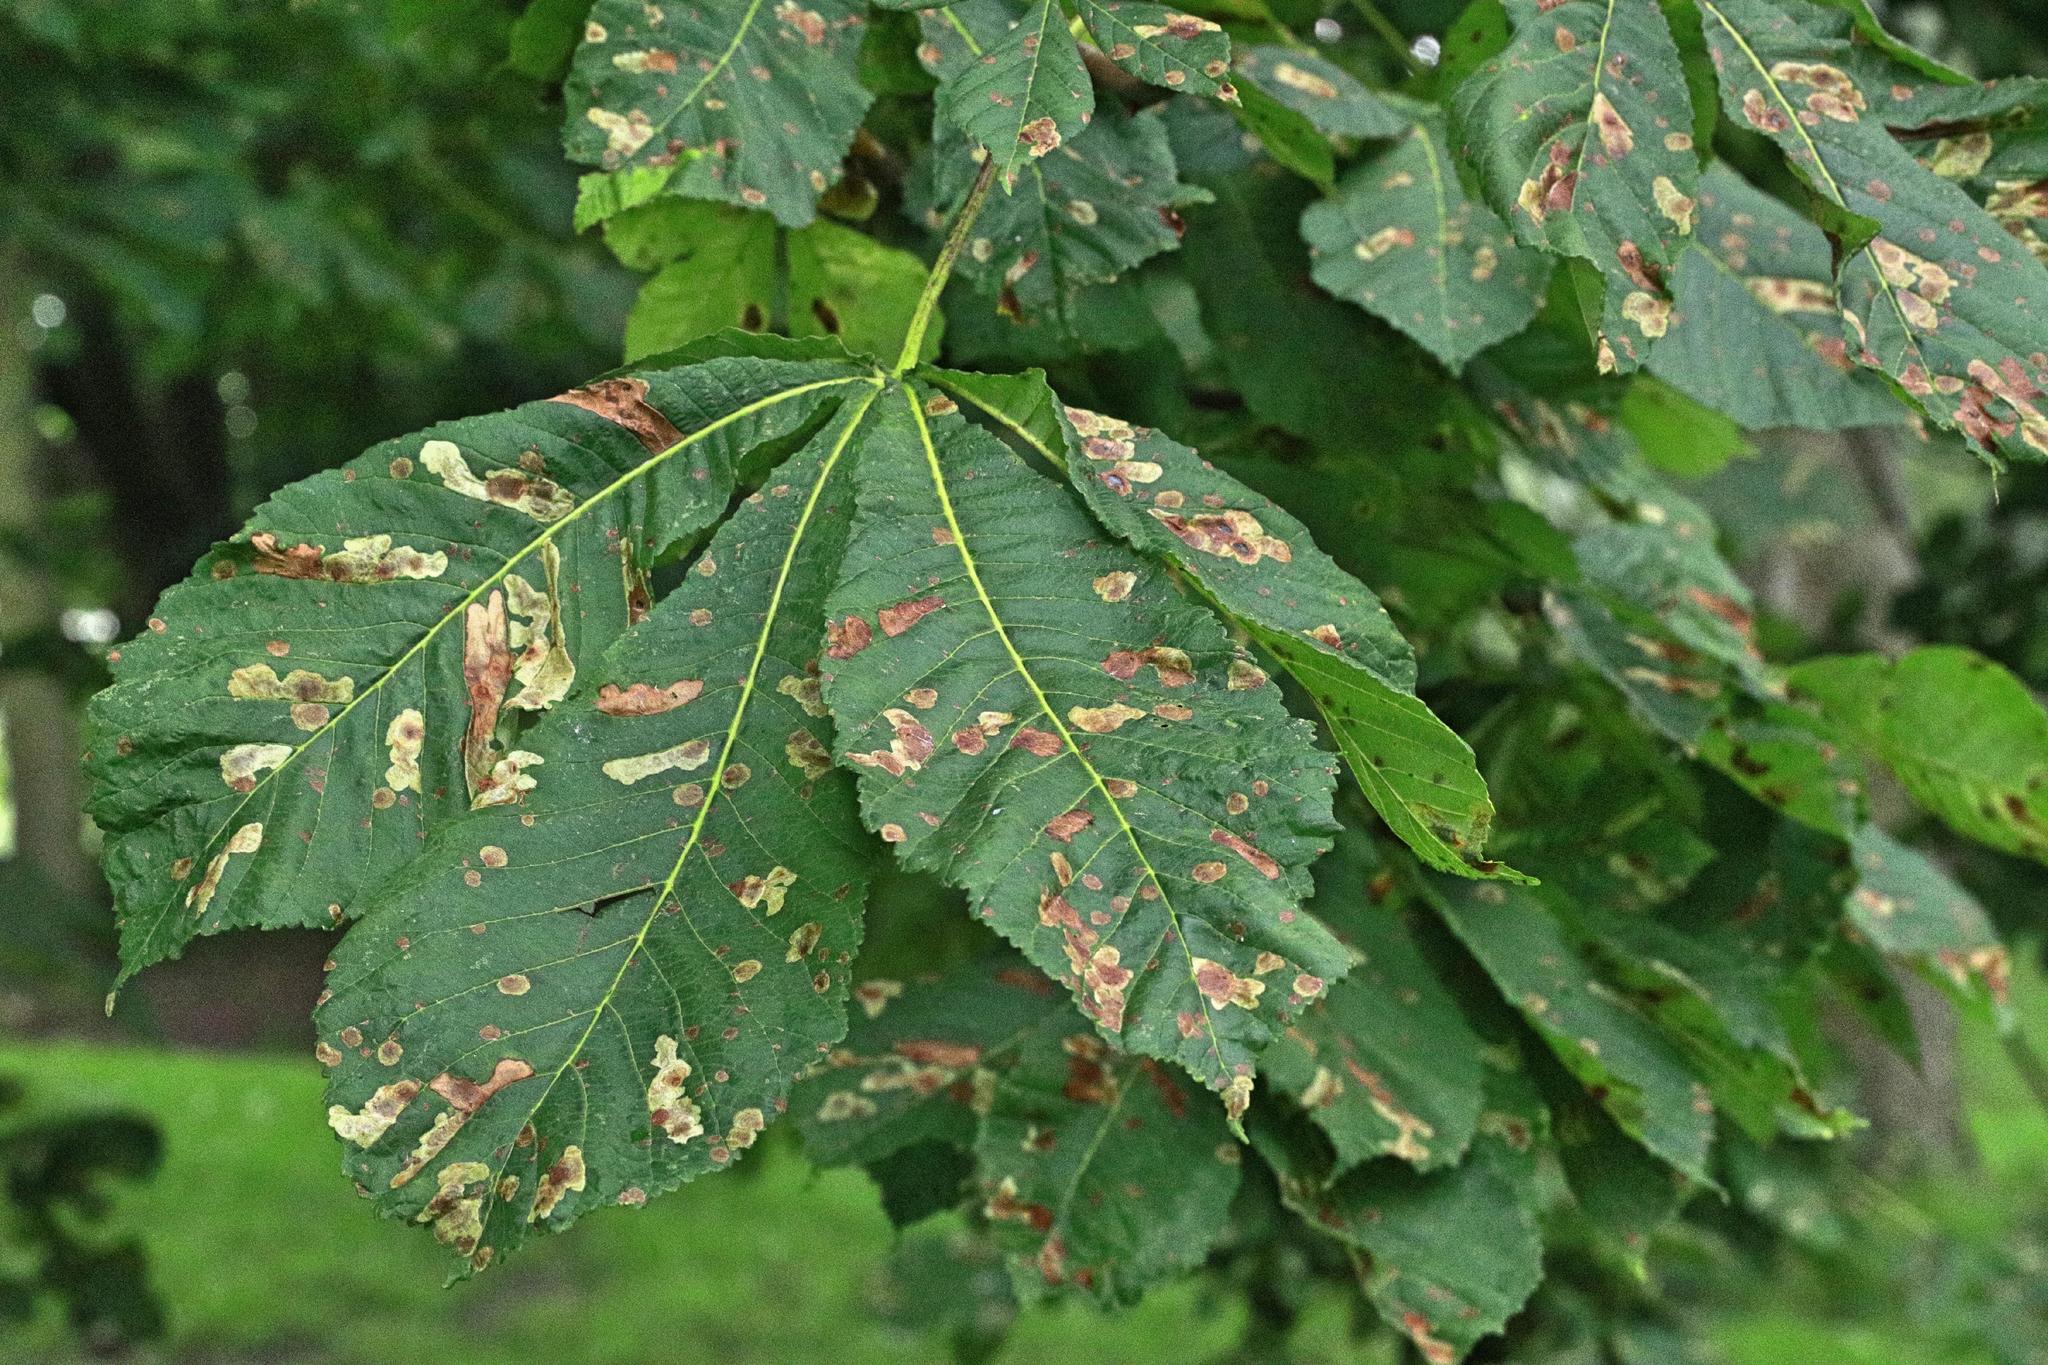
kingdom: Animalia
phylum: Arthropoda
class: Insecta
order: Lepidoptera
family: Gracillariidae
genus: Cameraria
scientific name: Cameraria ohridella
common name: Horse-chestnut leaf-miner
